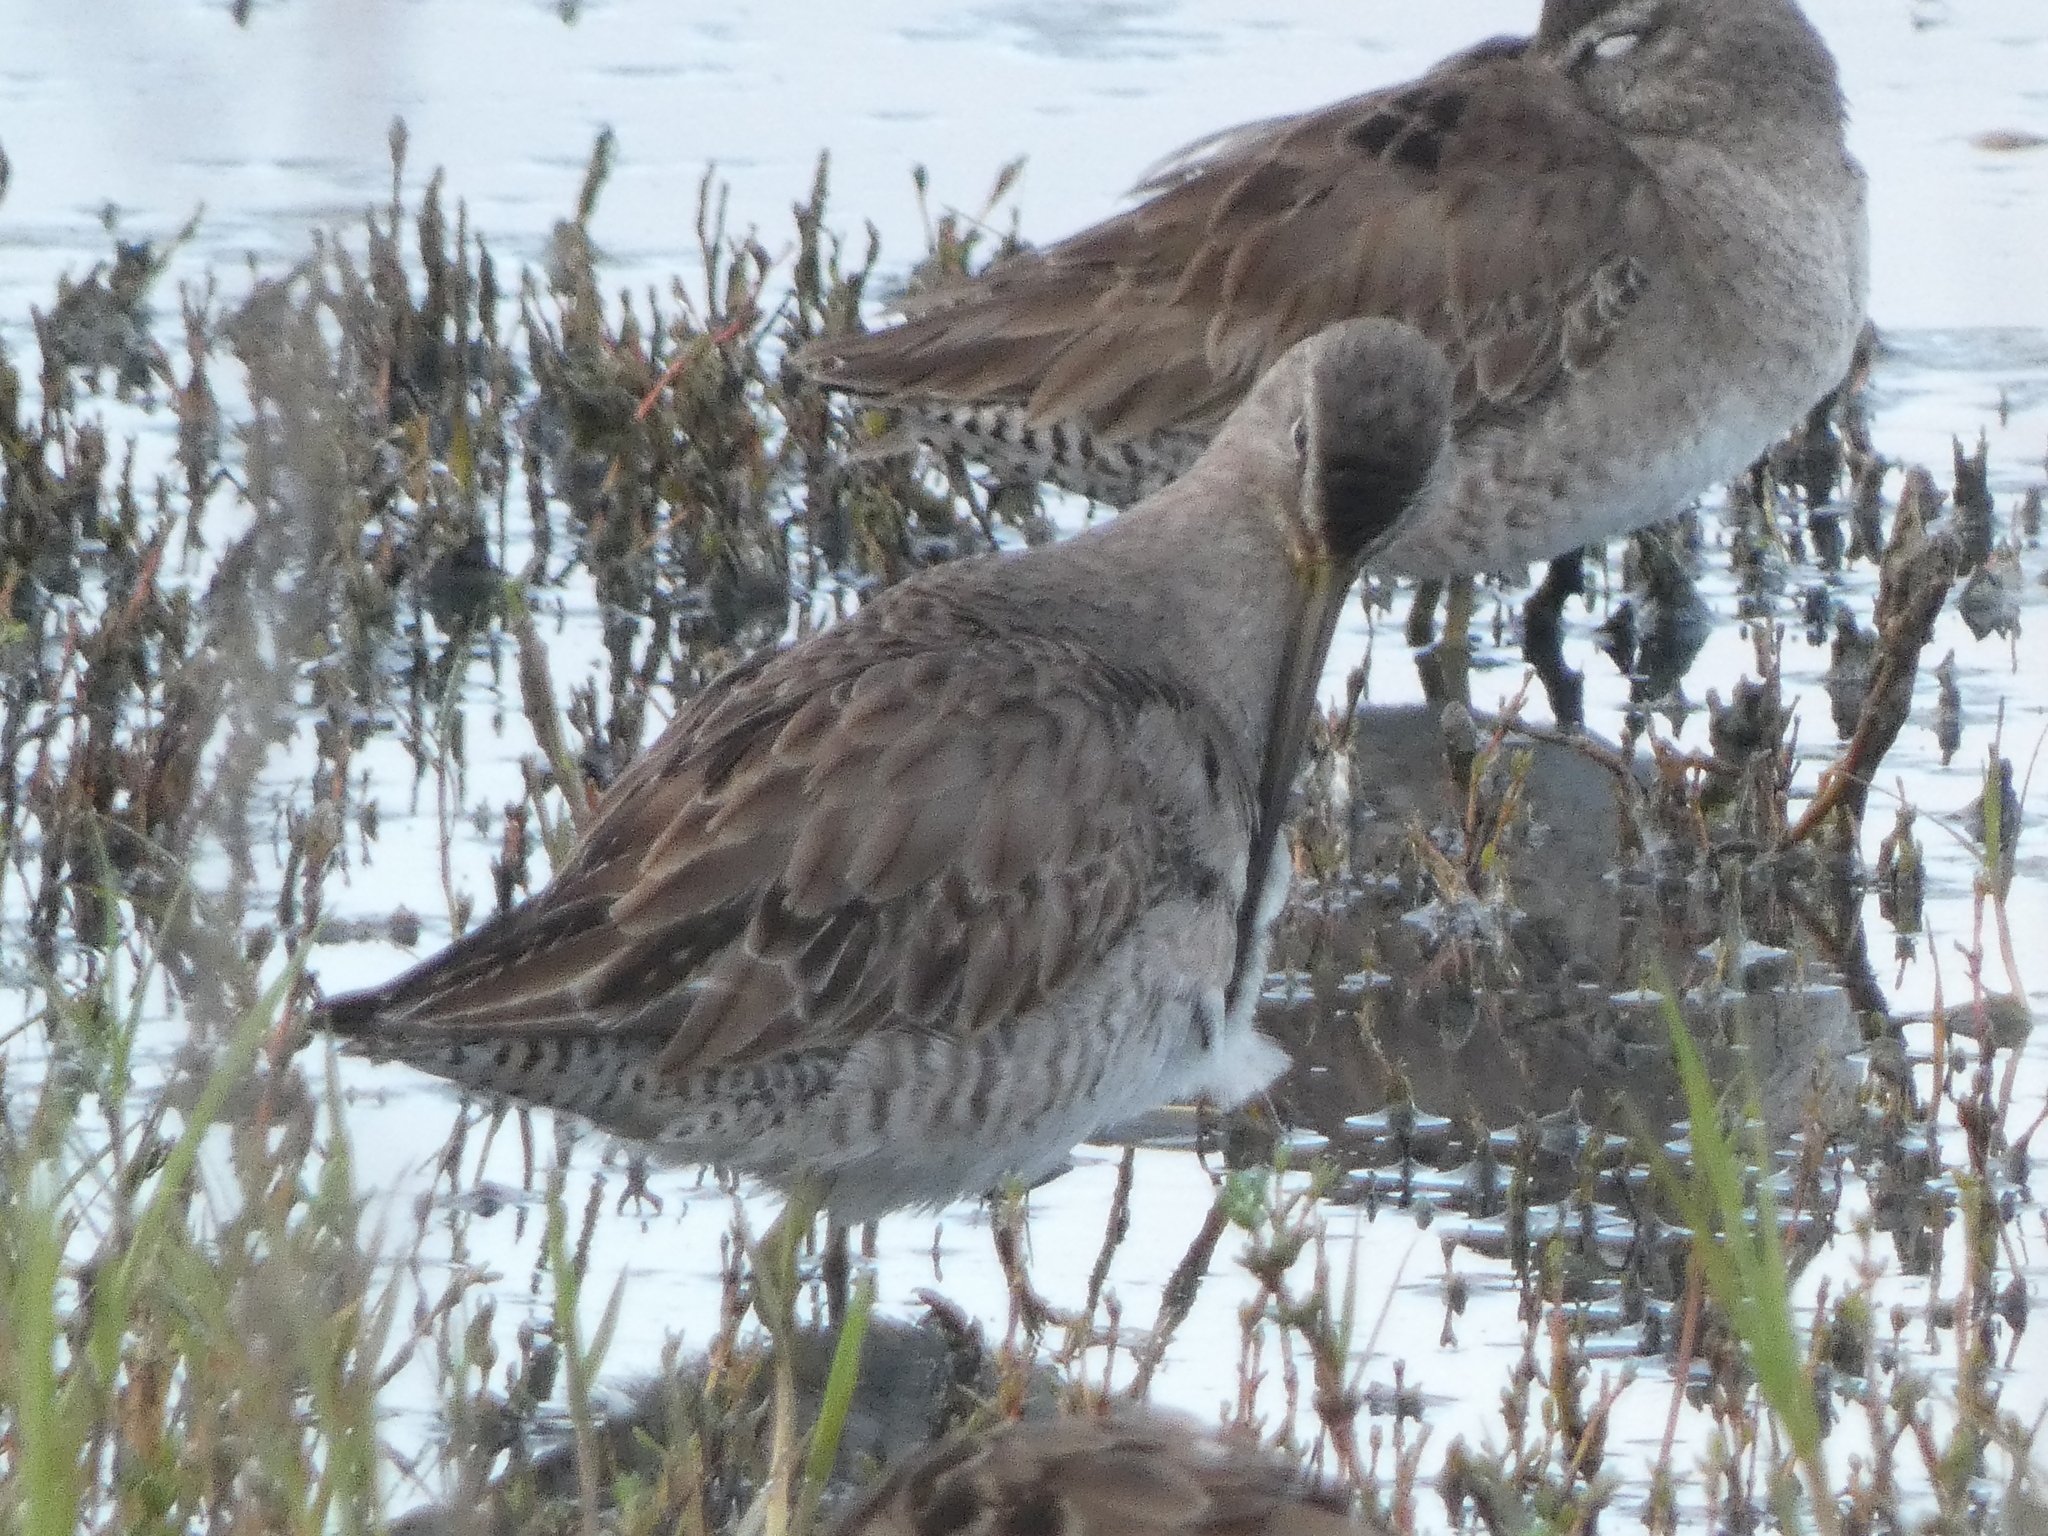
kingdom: Animalia
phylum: Chordata
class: Aves
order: Charadriiformes
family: Scolopacidae
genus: Limnodromus
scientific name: Limnodromus scolopaceus
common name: Long-billed dowitcher
